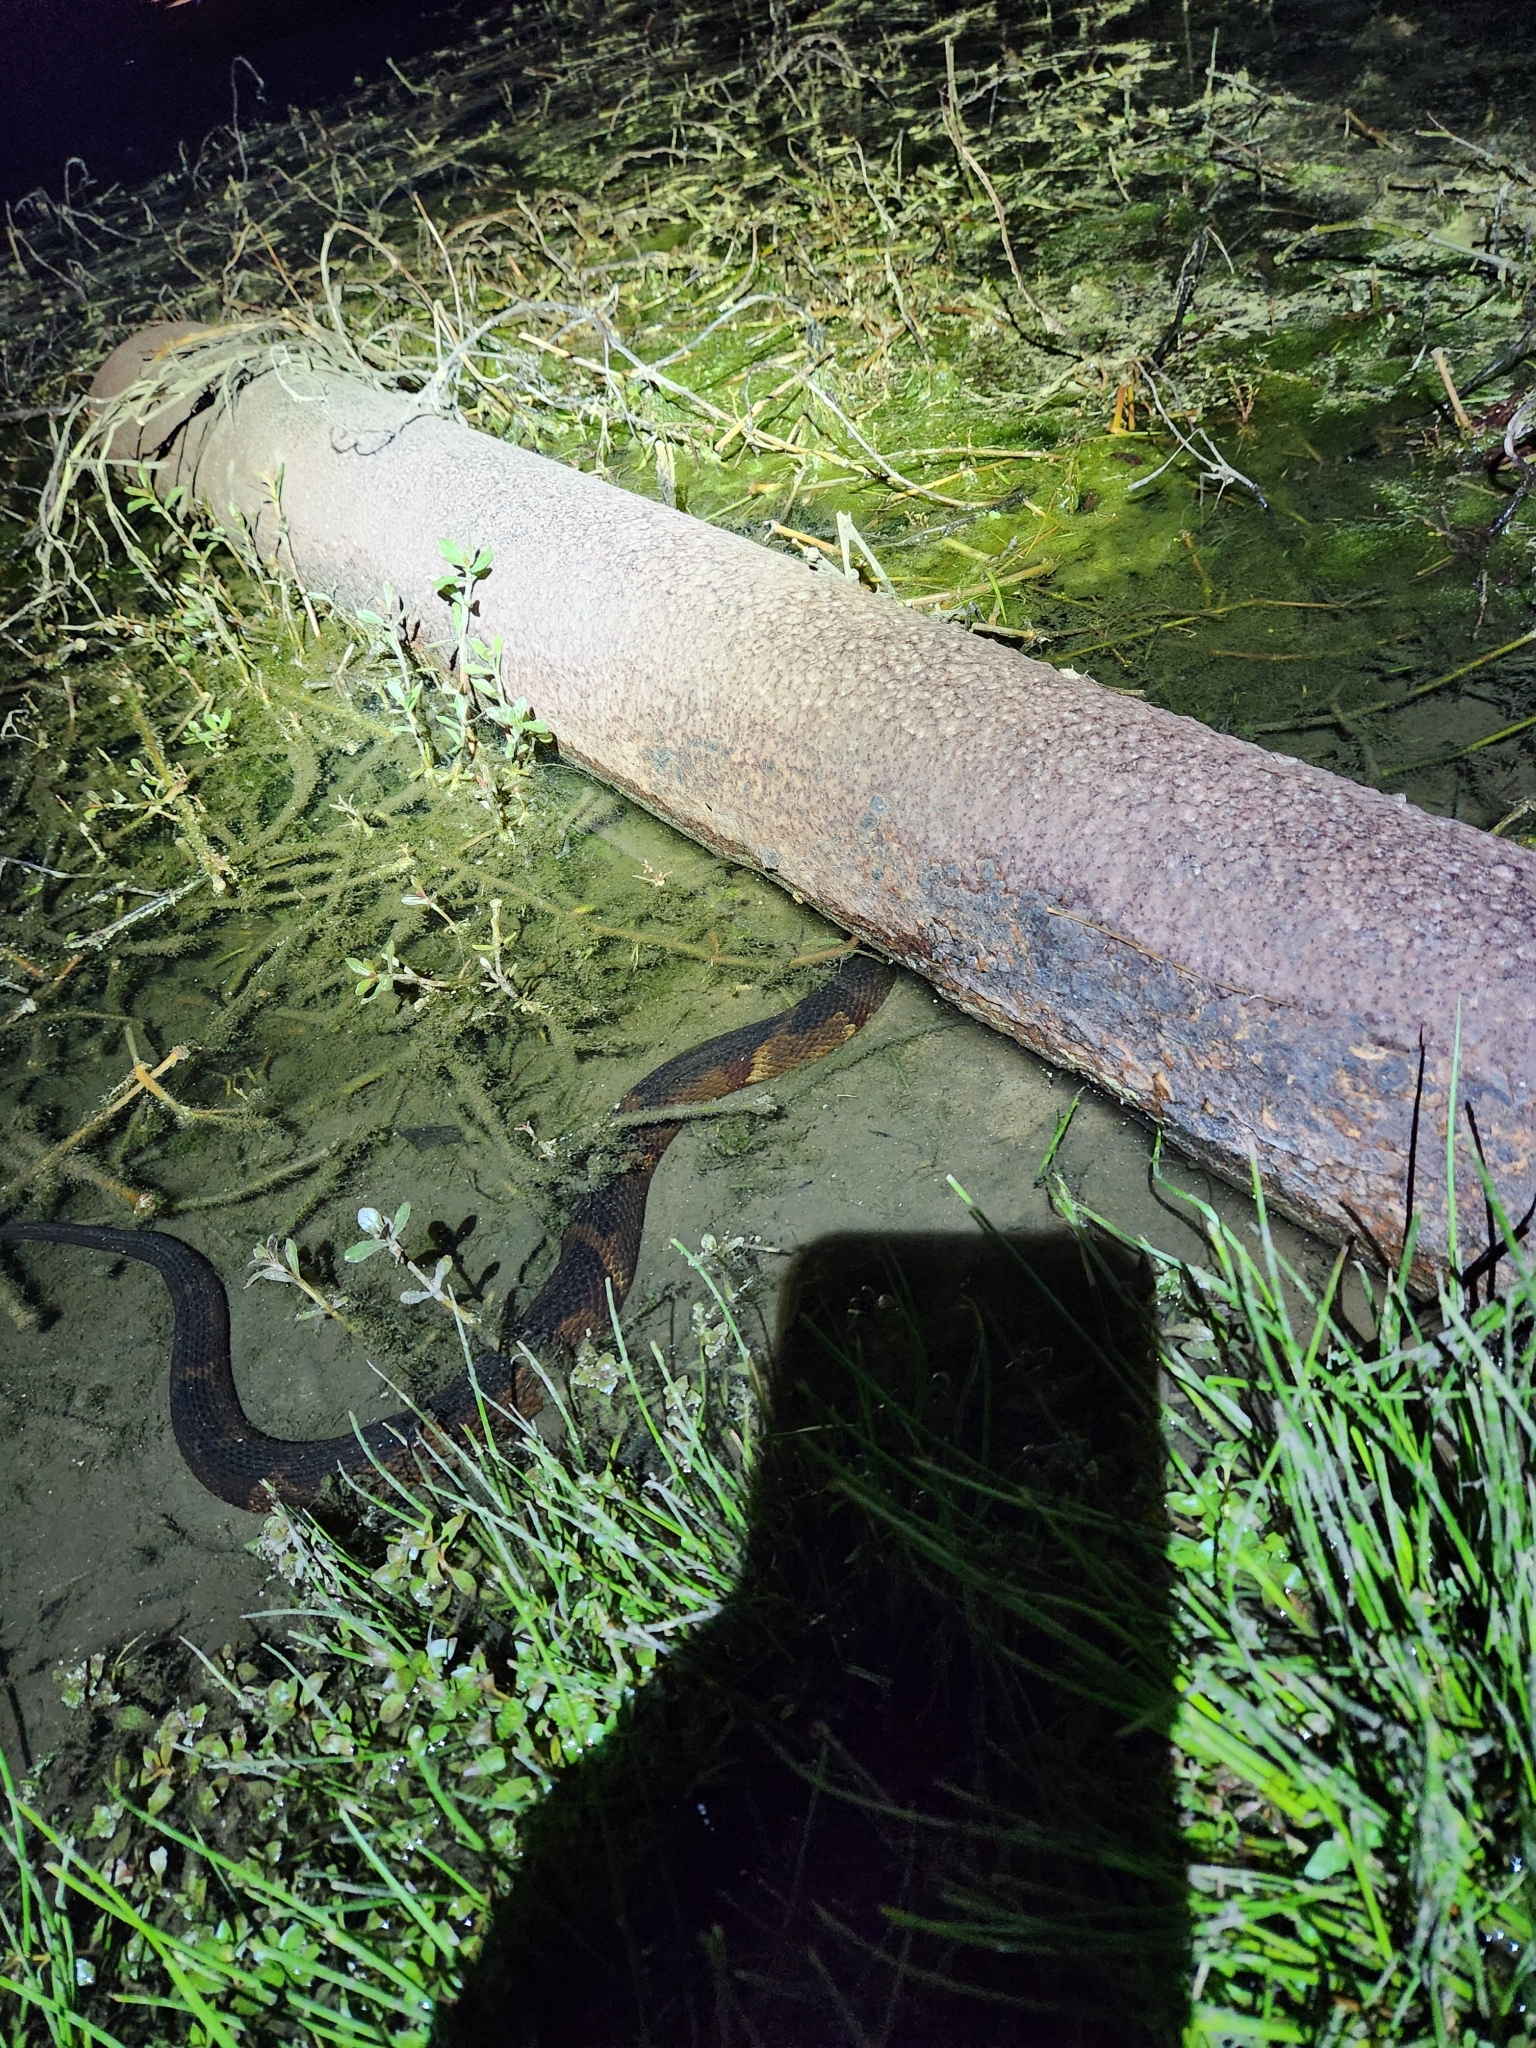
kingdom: Animalia
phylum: Chordata
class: Squamata
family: Colubridae
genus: Nerodia
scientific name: Nerodia fasciata
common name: Southern water snake
